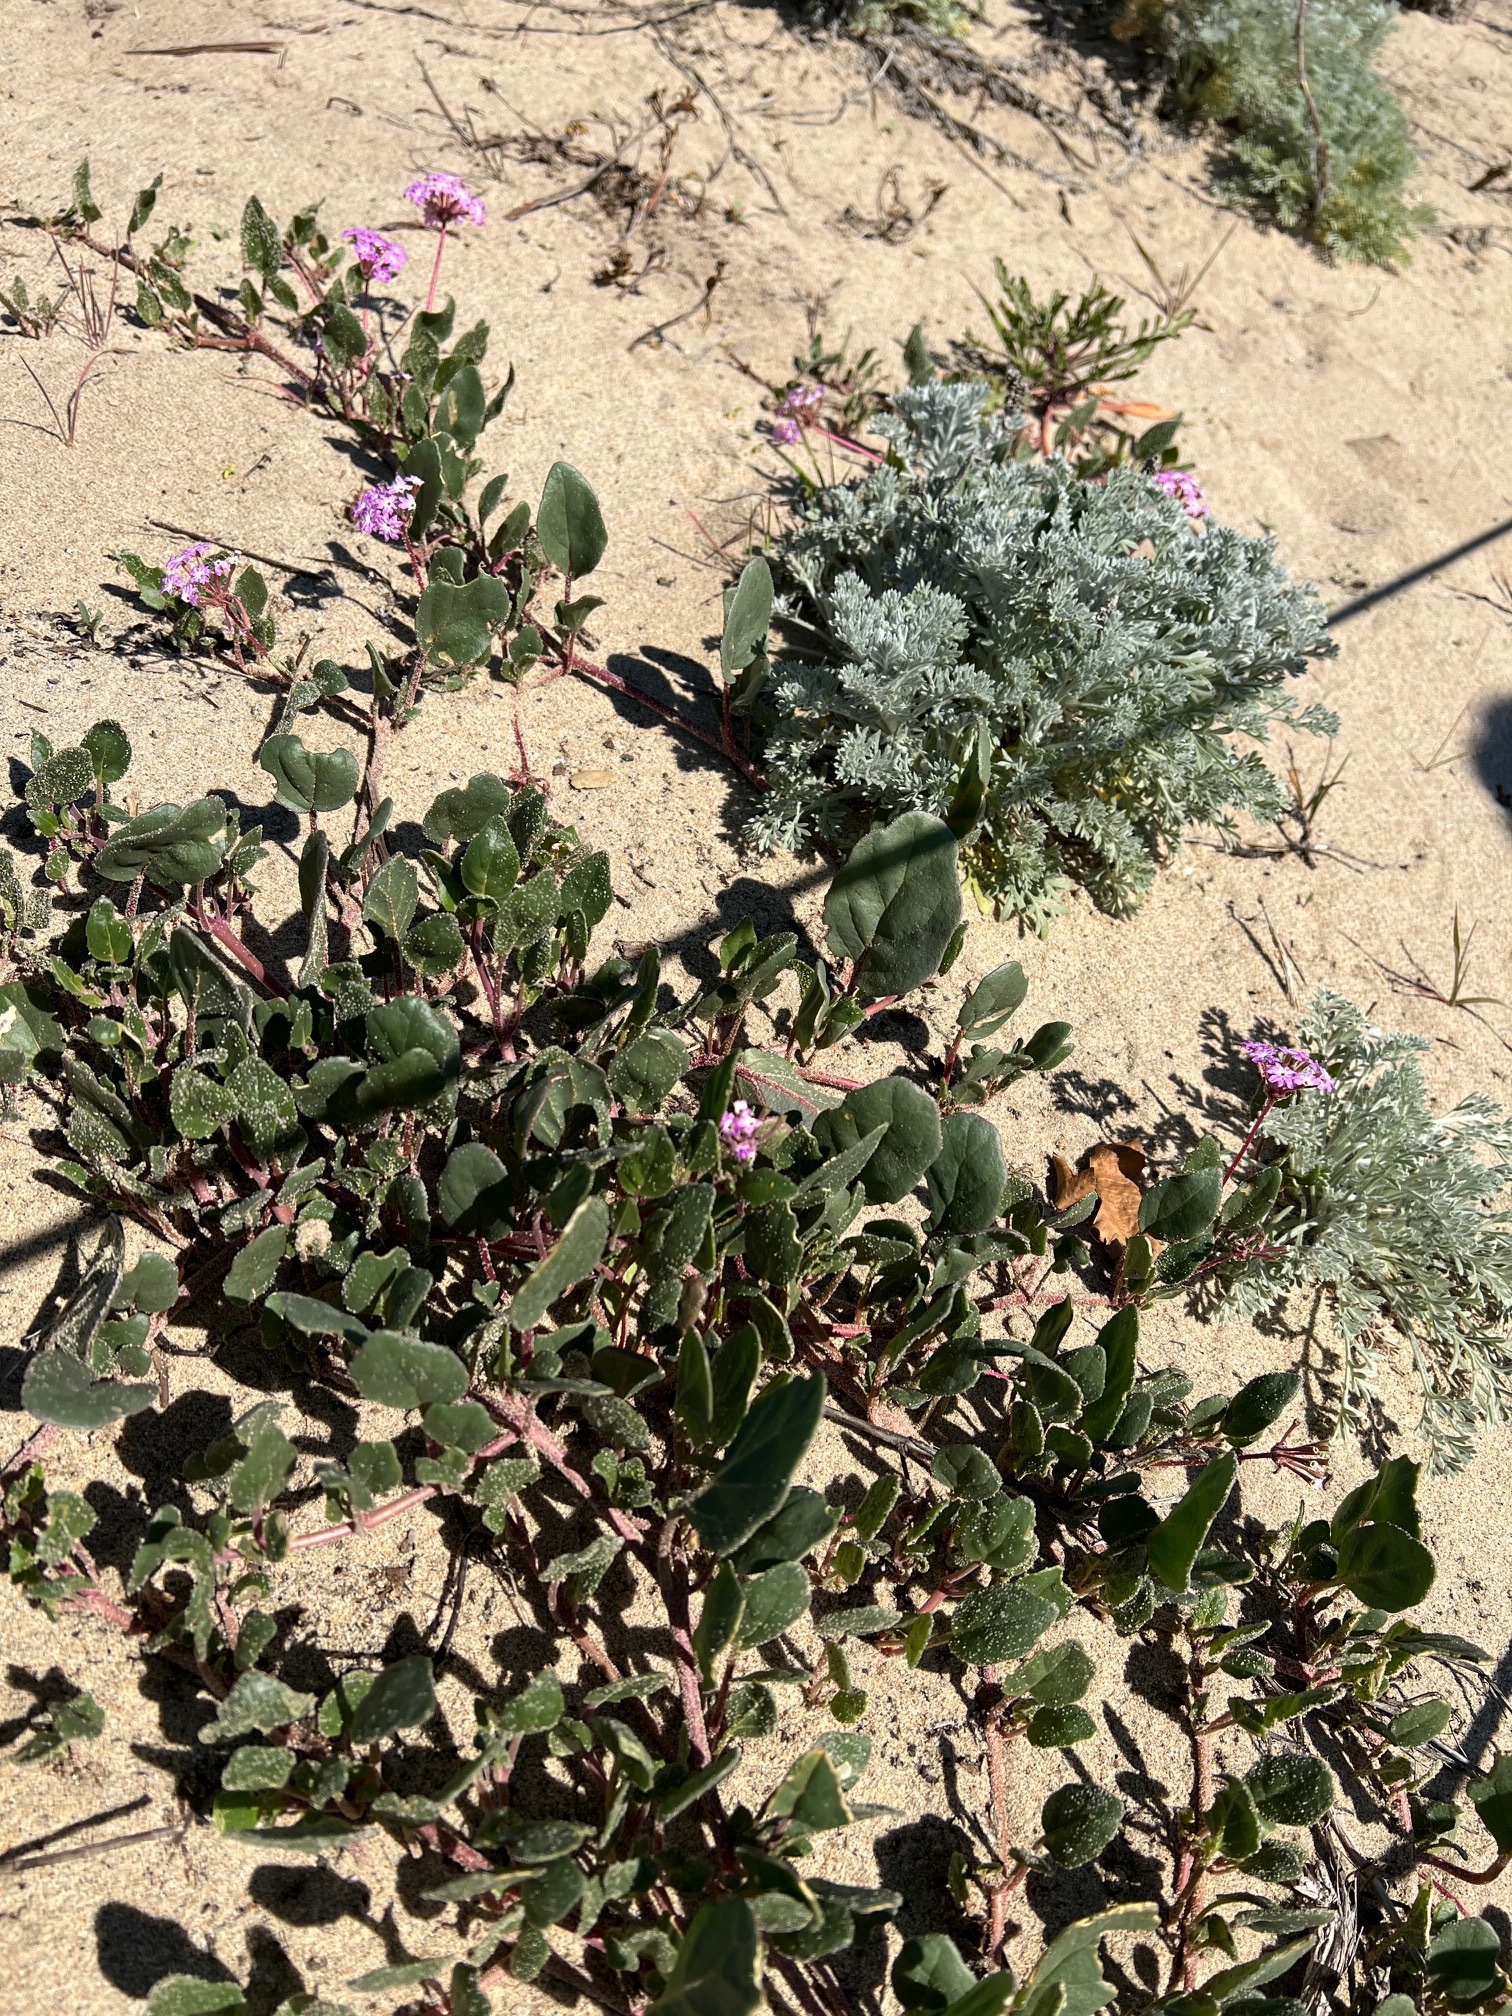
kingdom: Plantae
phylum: Tracheophyta
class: Magnoliopsida
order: Caryophyllales
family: Nyctaginaceae
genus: Abronia
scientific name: Abronia umbellata
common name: Sand-verbena
